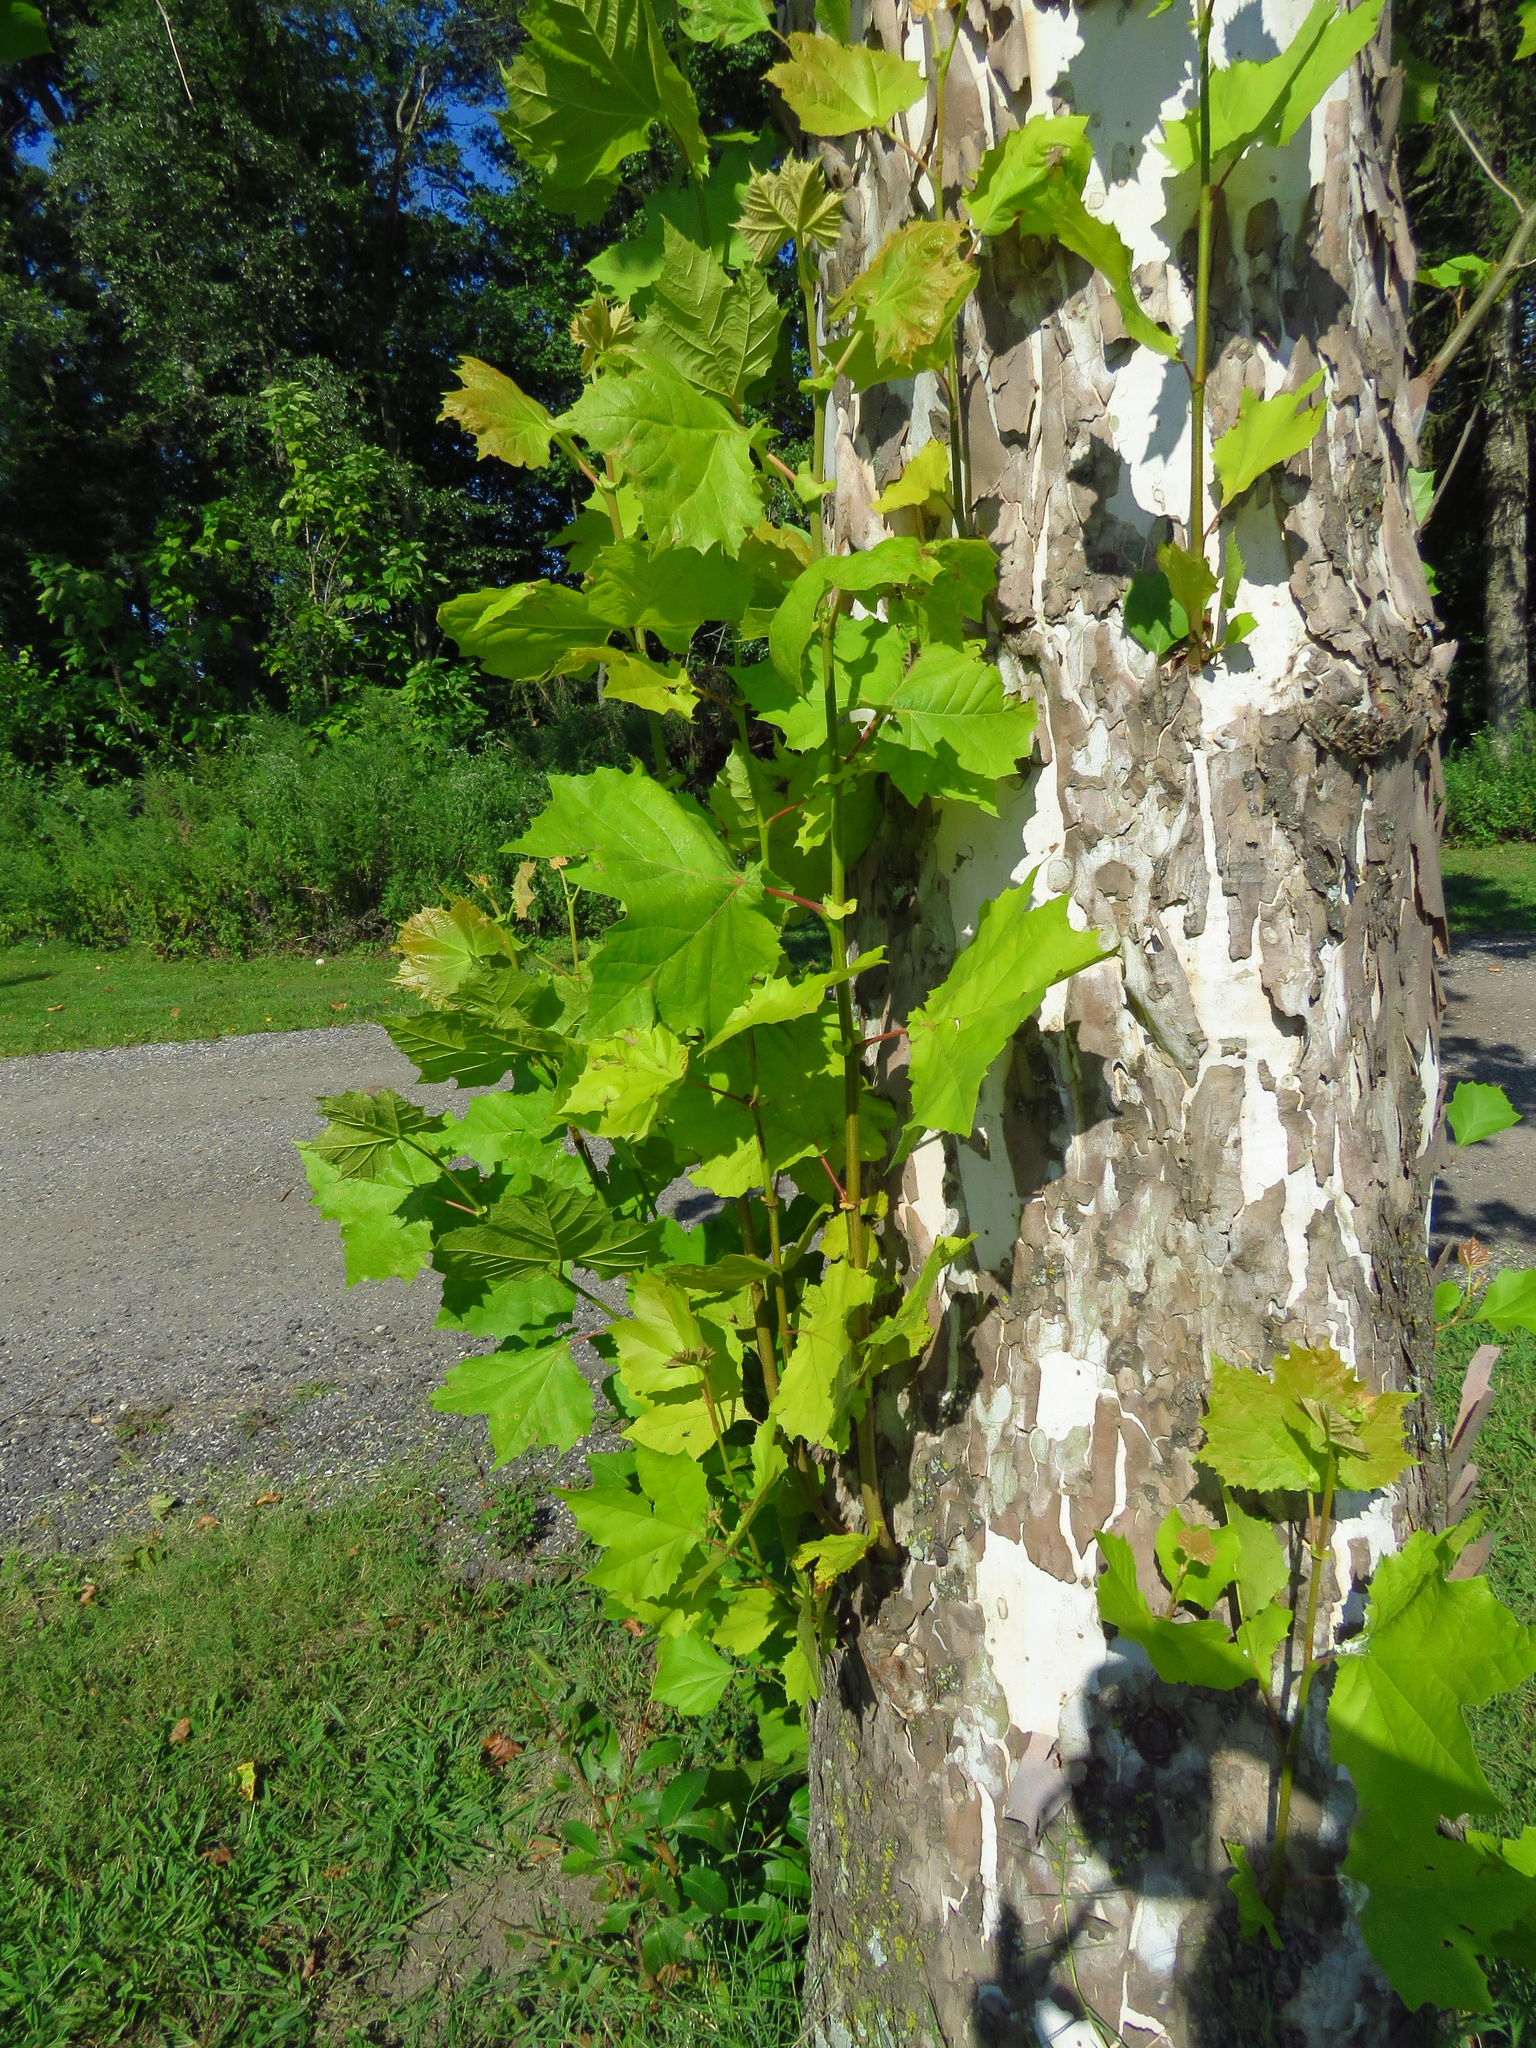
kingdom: Plantae
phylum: Tracheophyta
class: Magnoliopsida
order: Proteales
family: Platanaceae
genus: Platanus
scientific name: Platanus occidentalis
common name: American sycamore
